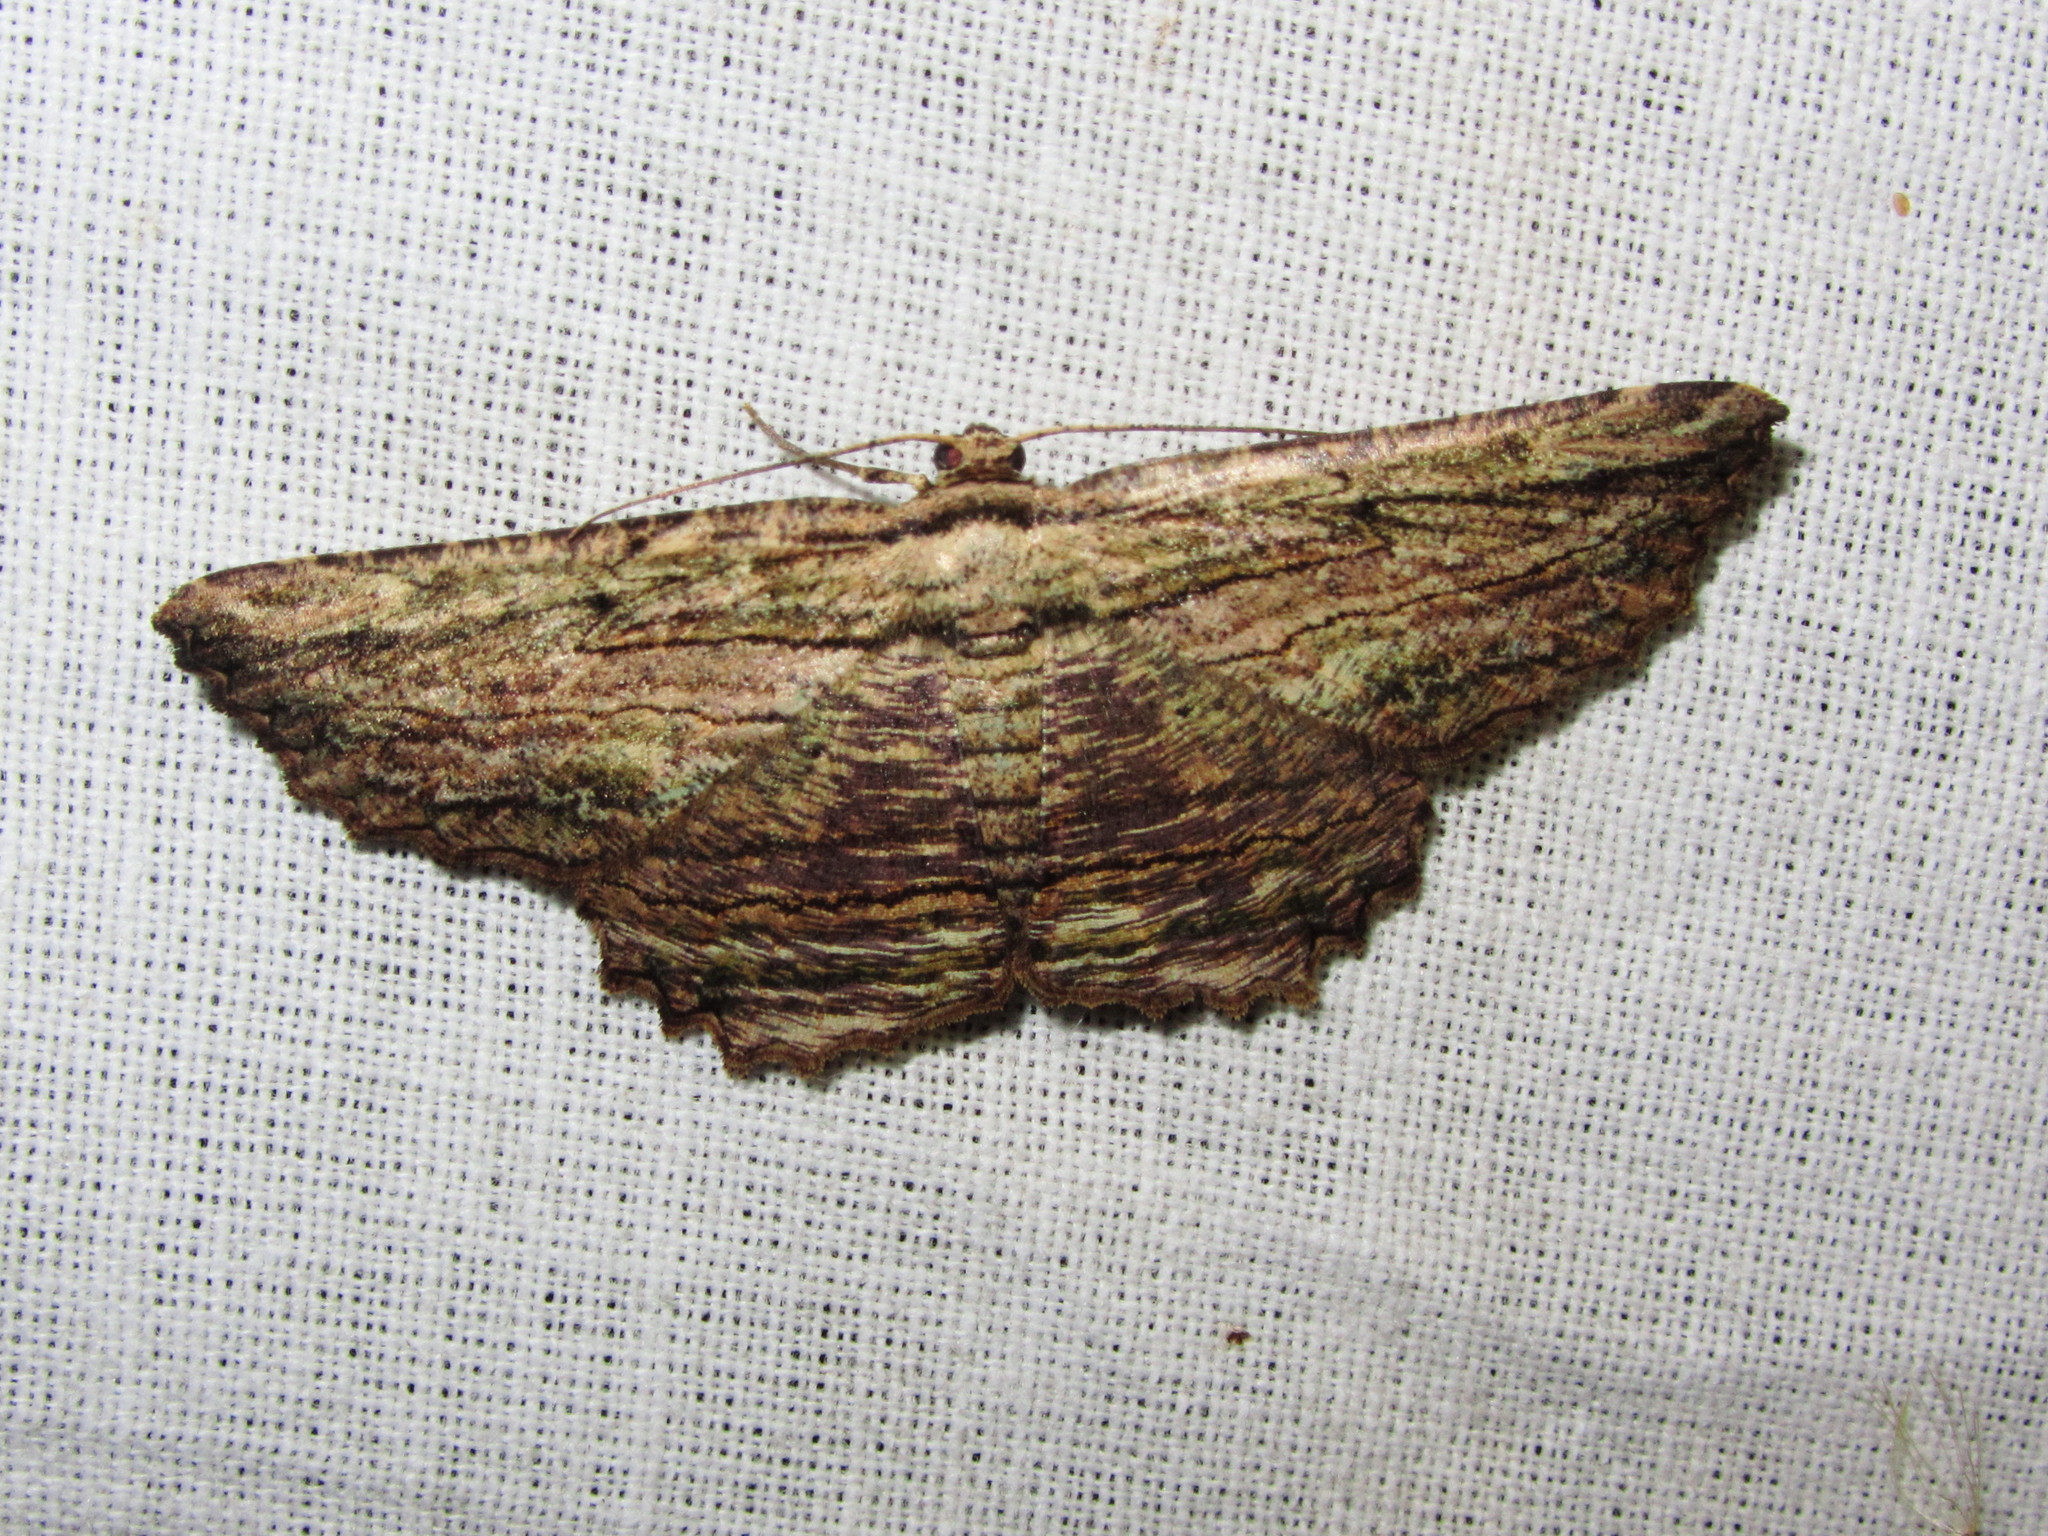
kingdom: Animalia
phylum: Arthropoda
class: Insecta
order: Lepidoptera
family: Geometridae
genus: Menophra
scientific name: Menophra subterminalis
